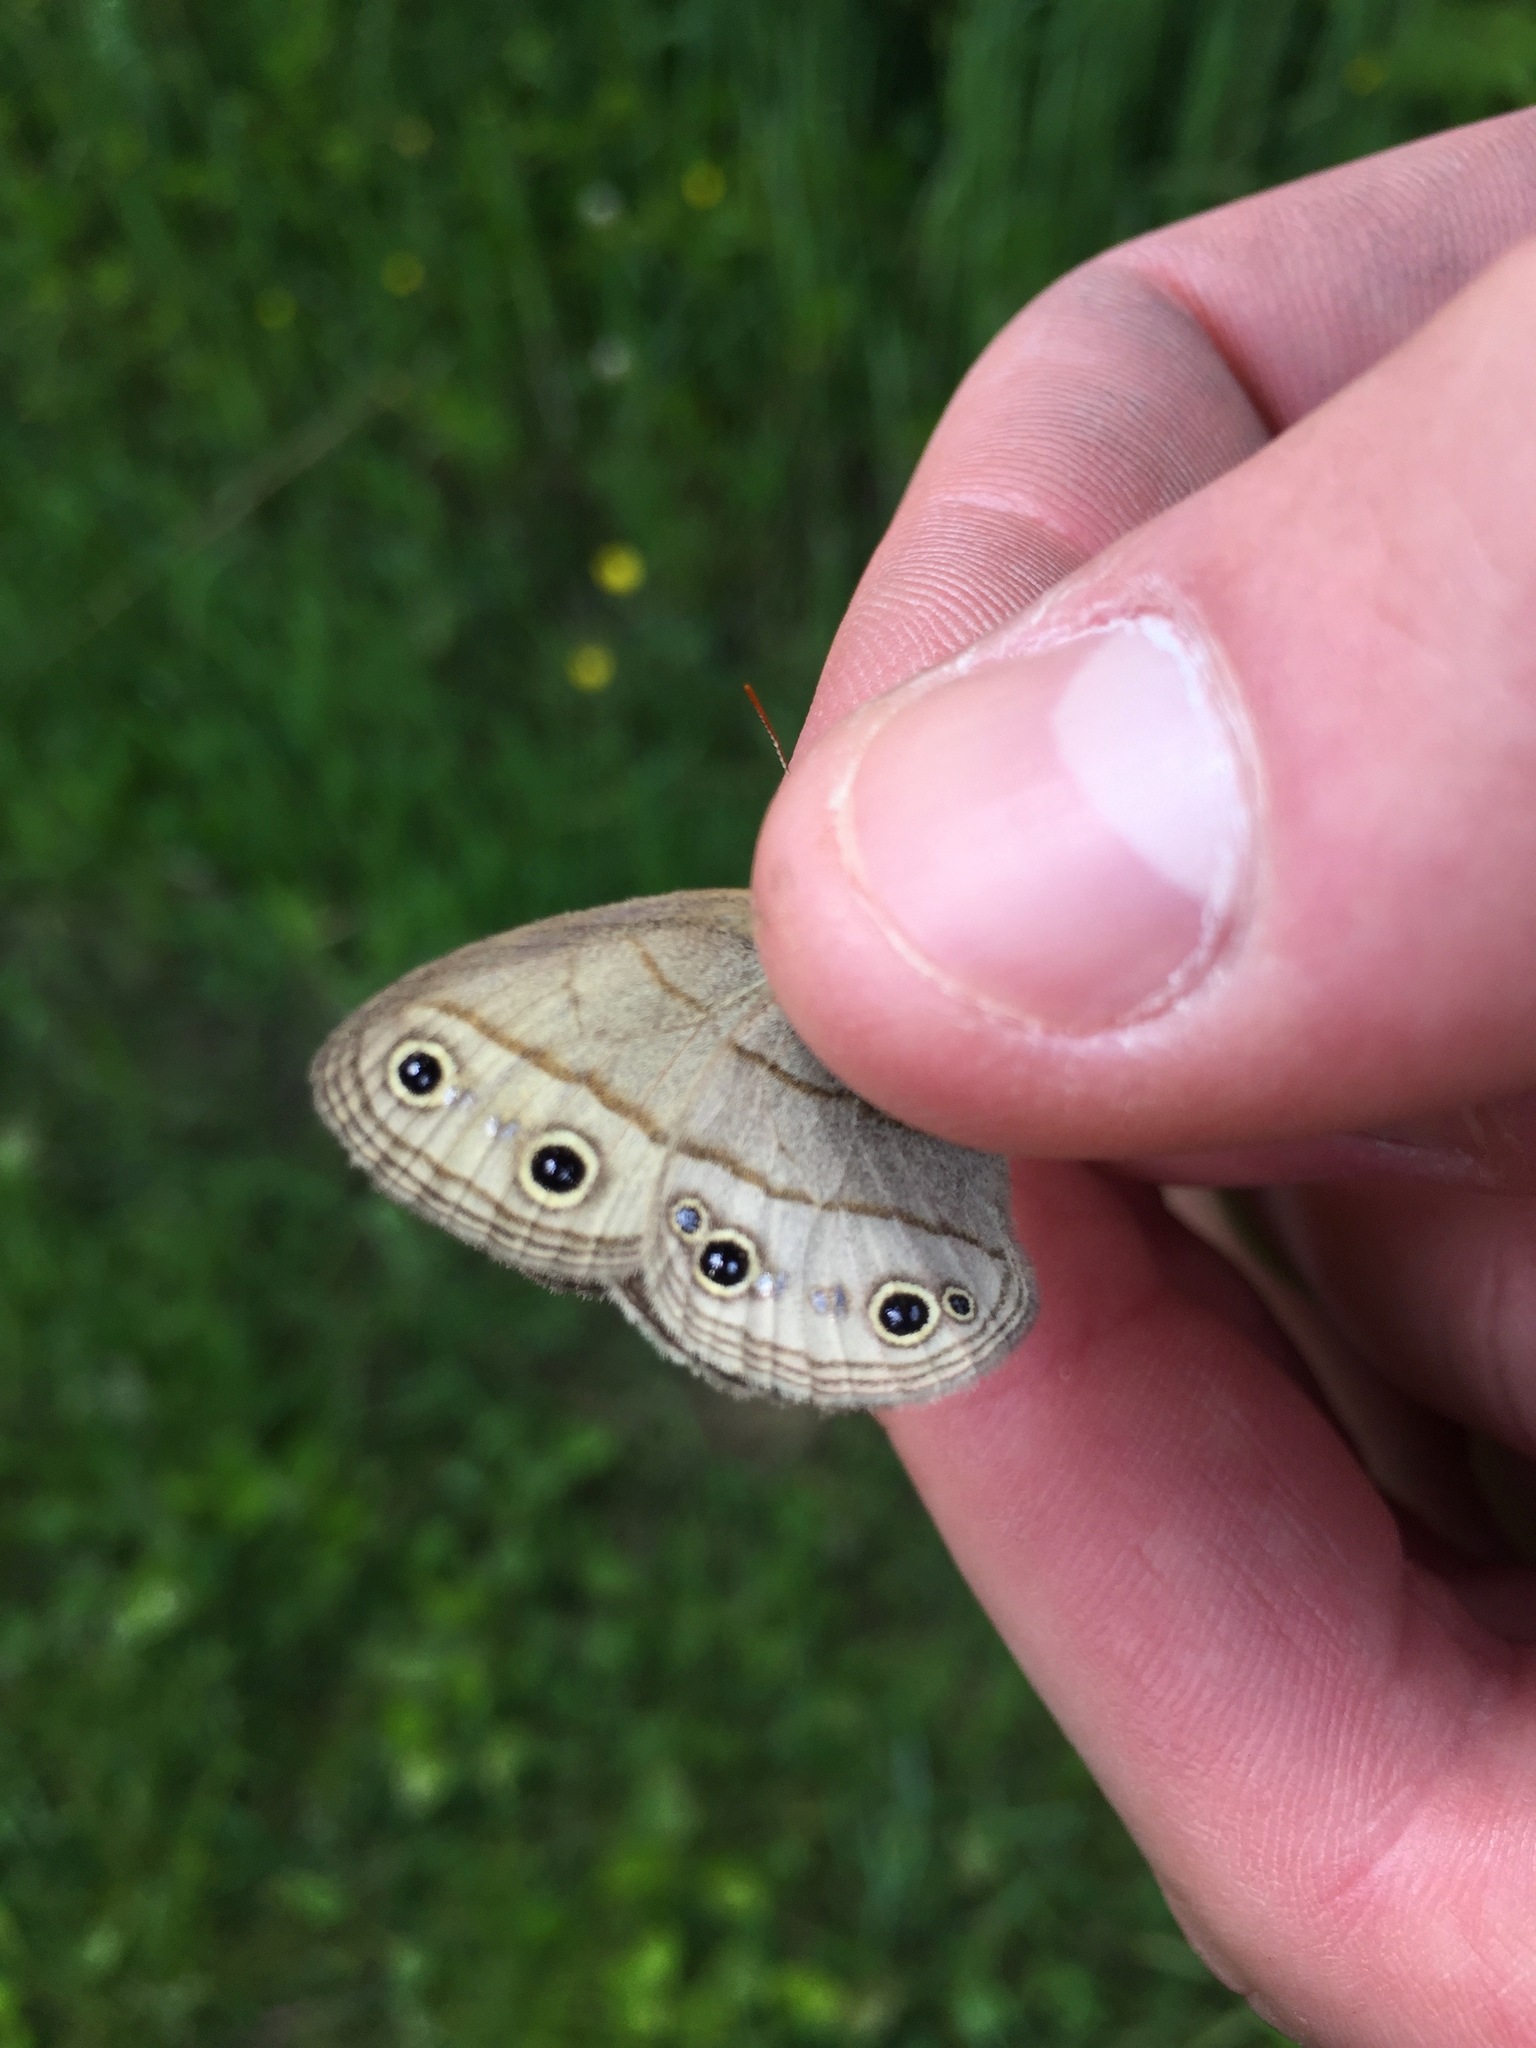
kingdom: Animalia
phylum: Arthropoda
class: Insecta
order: Lepidoptera
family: Nymphalidae
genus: Euptychia
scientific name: Euptychia cymela
